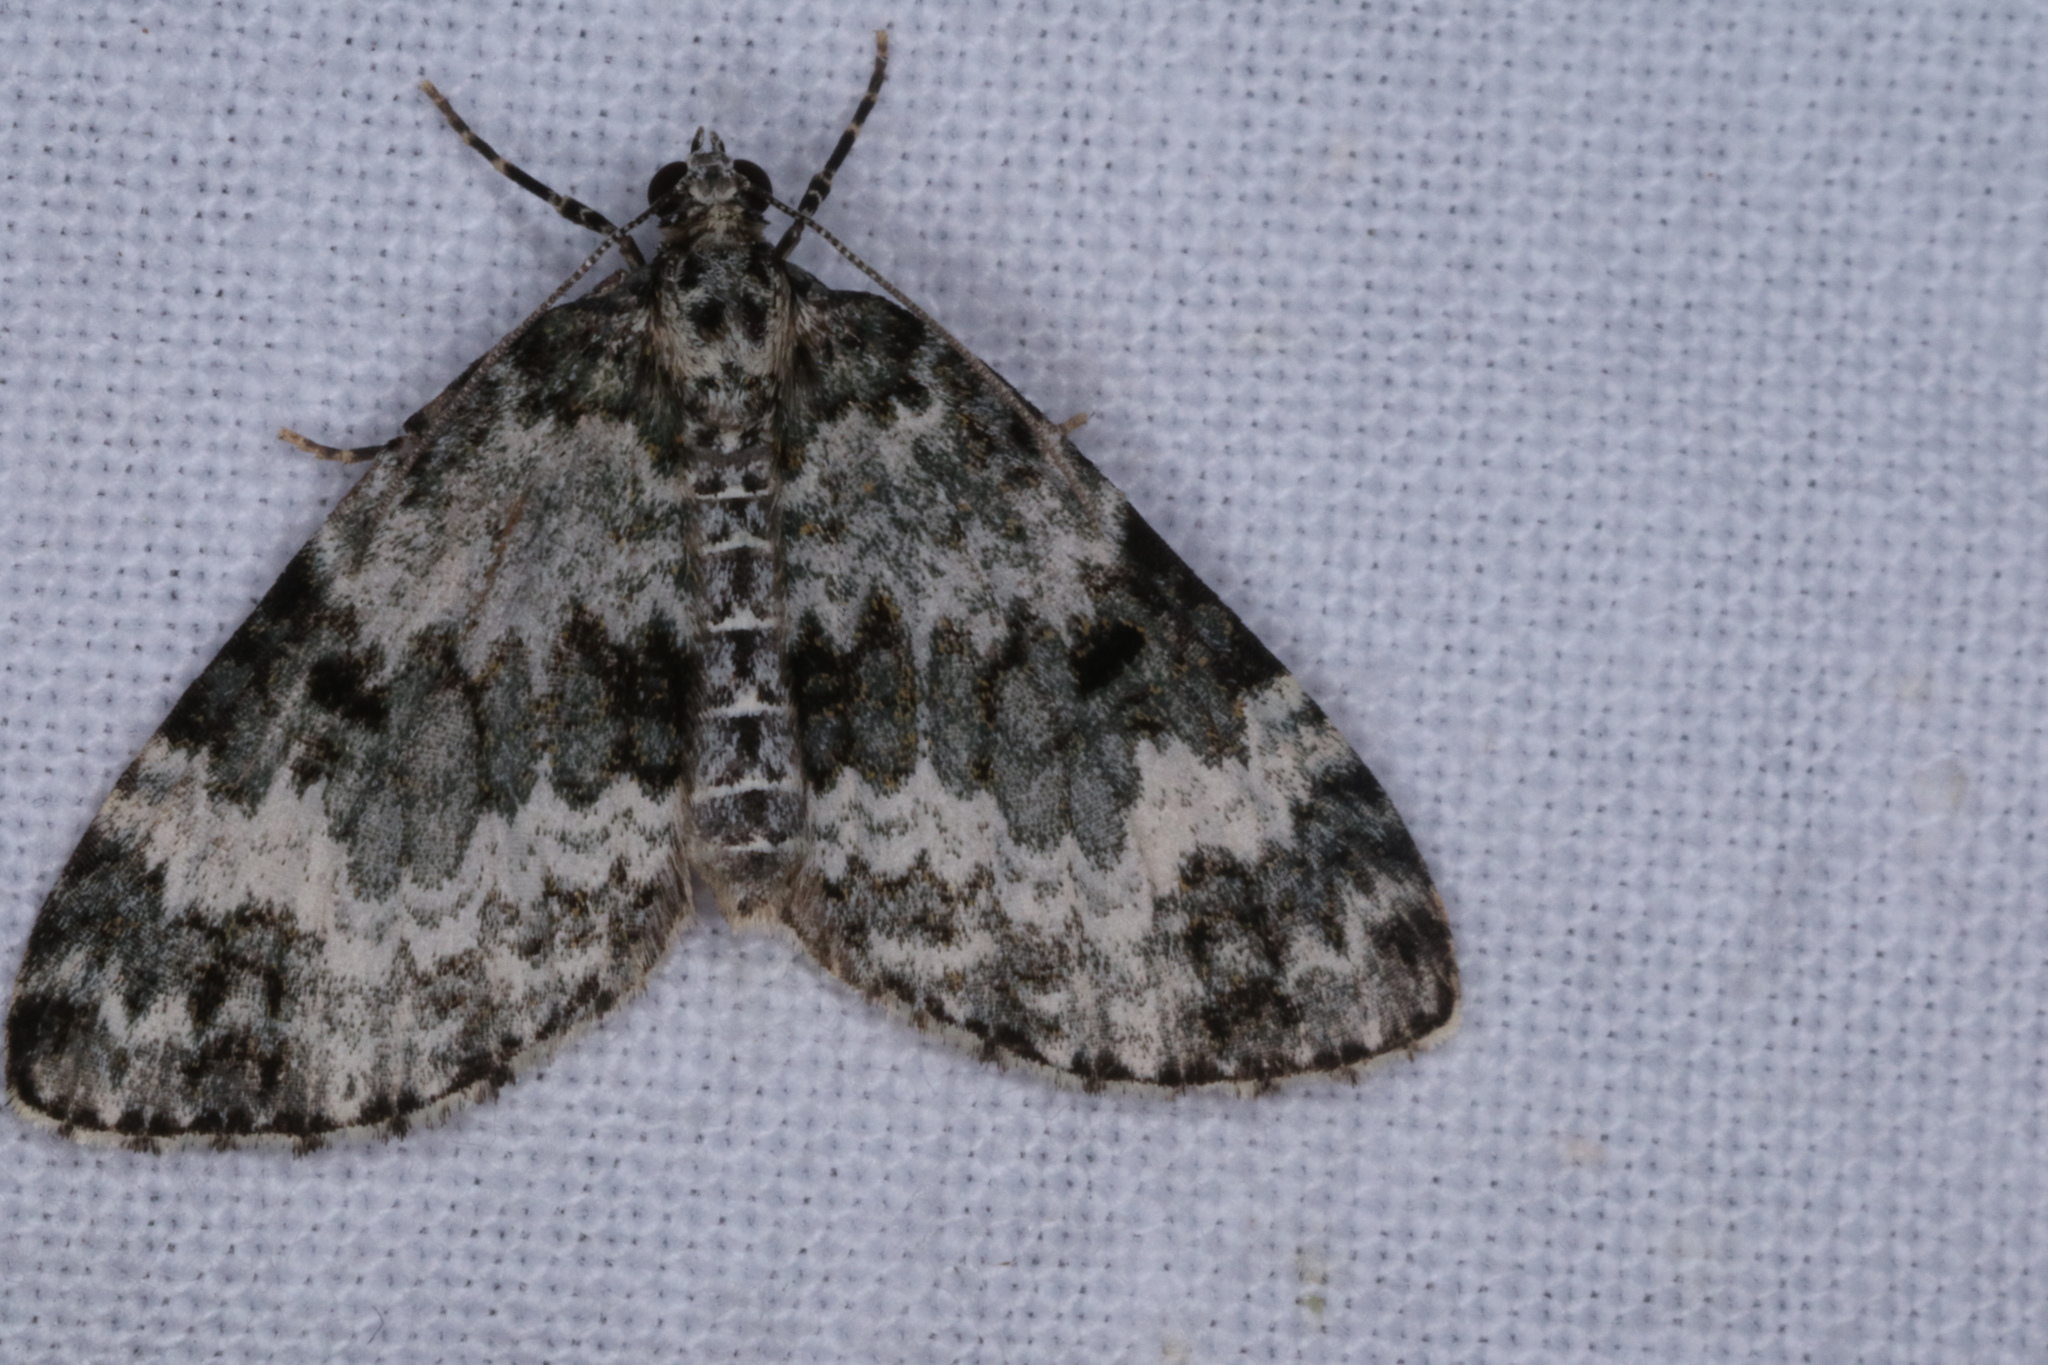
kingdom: Animalia
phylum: Arthropoda
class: Insecta
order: Lepidoptera
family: Geometridae
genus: Spargania
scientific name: Spargania magnoliata
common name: Double-banded carpet
